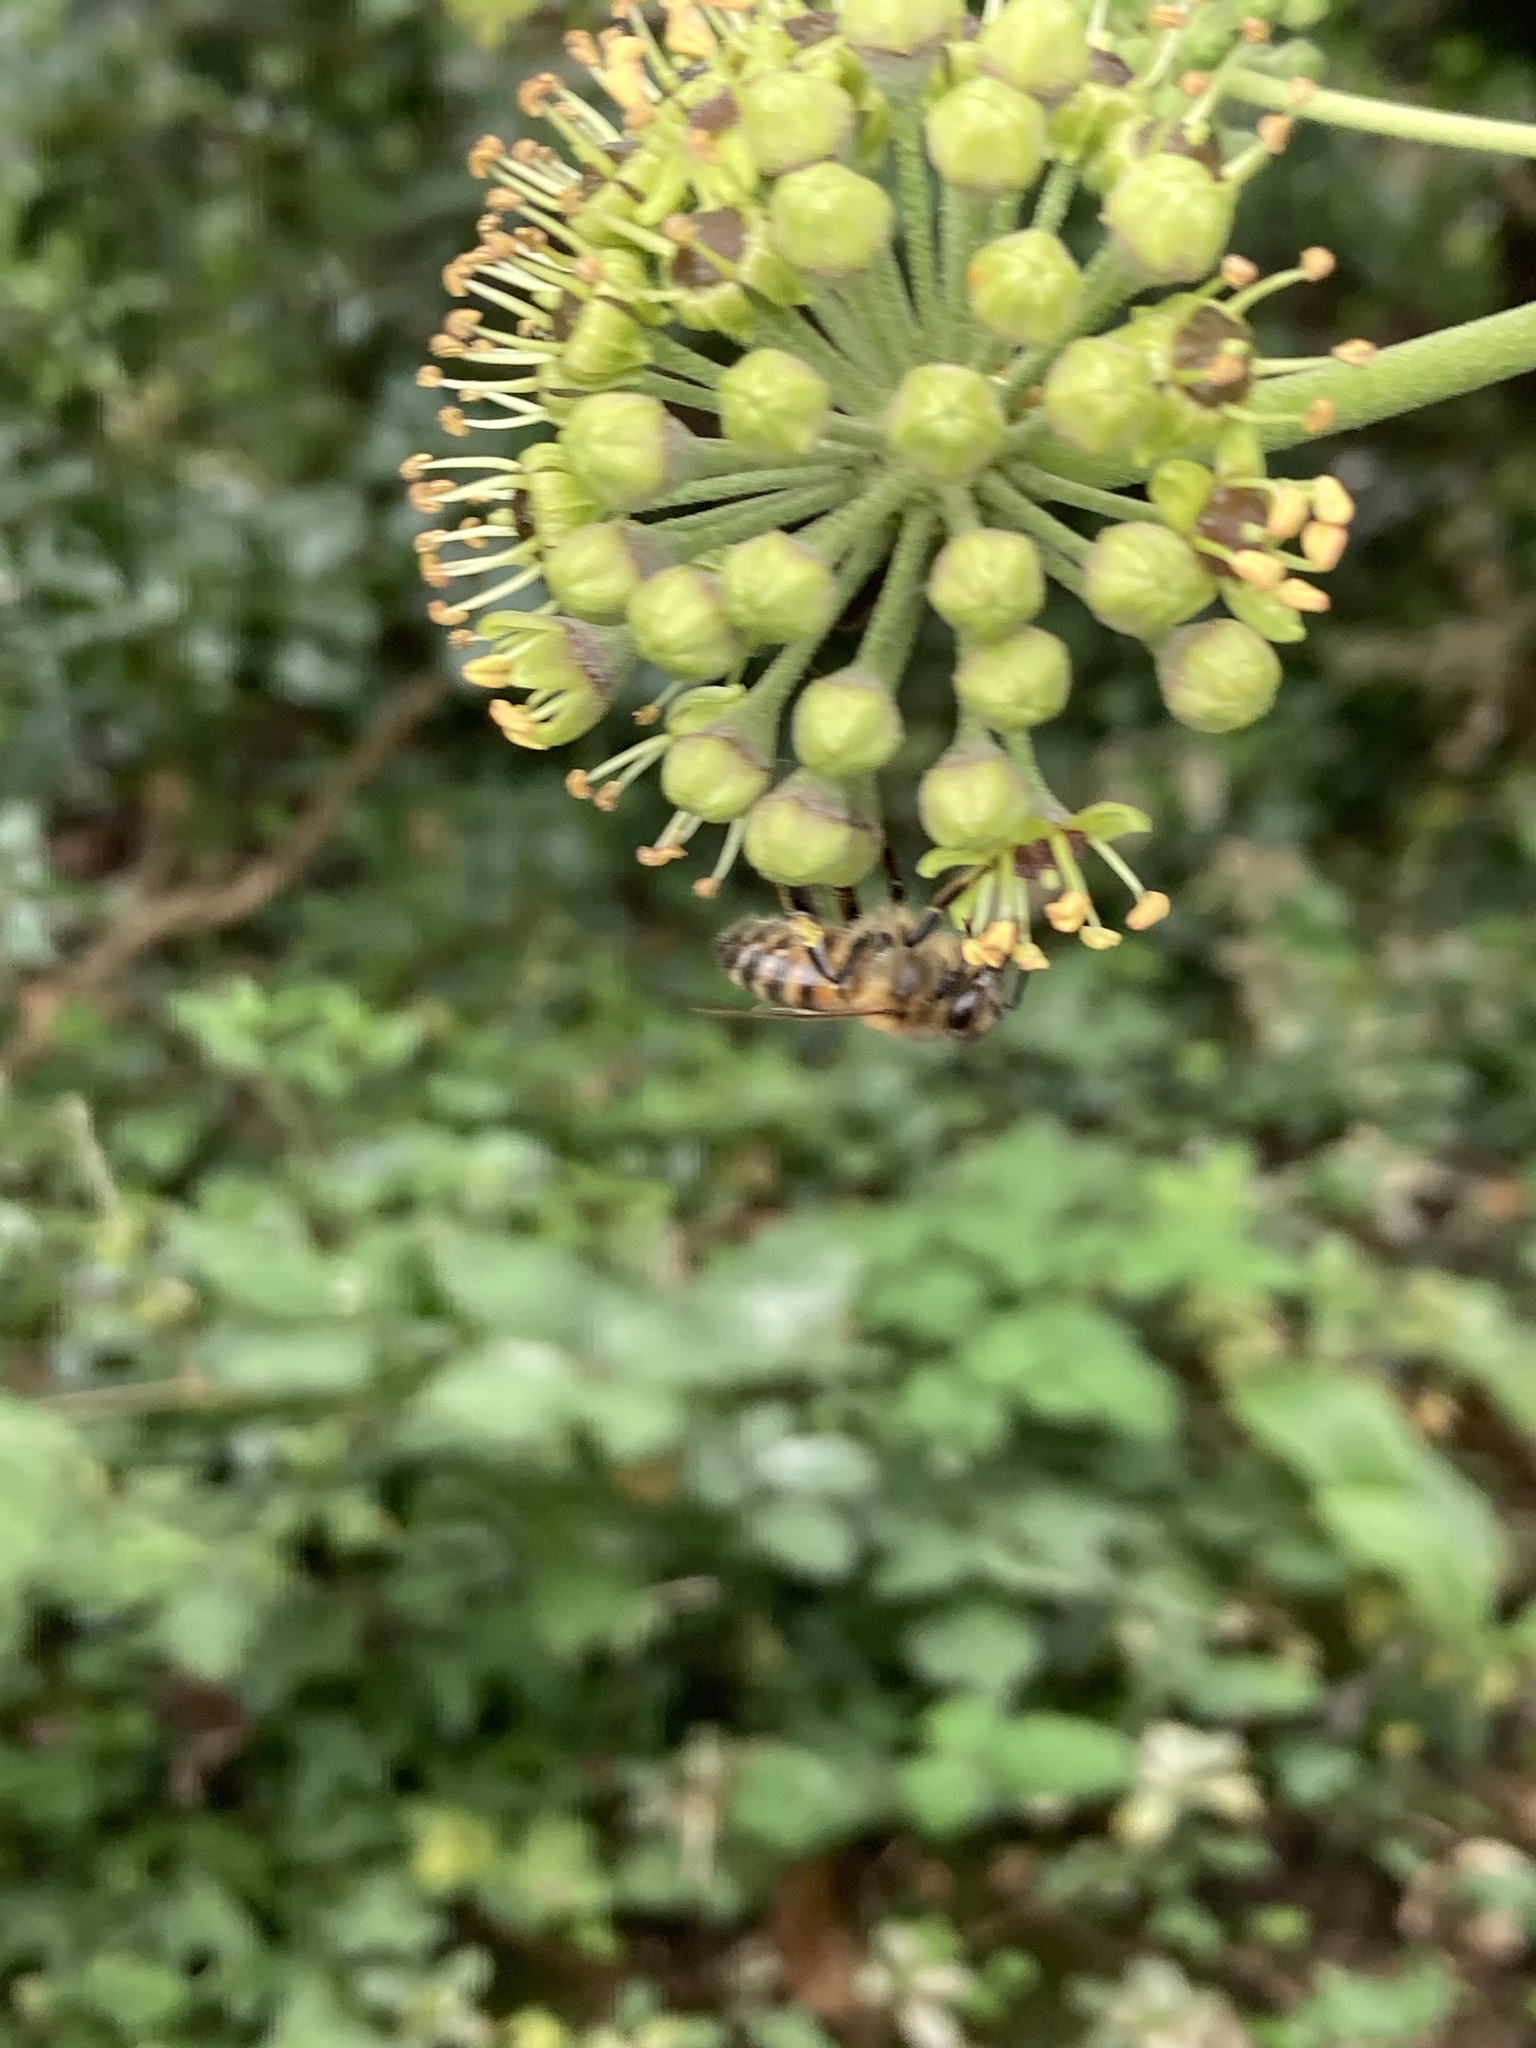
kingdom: Animalia
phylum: Arthropoda
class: Insecta
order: Hymenoptera
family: Apidae
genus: Apis
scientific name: Apis mellifera
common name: Honey bee
